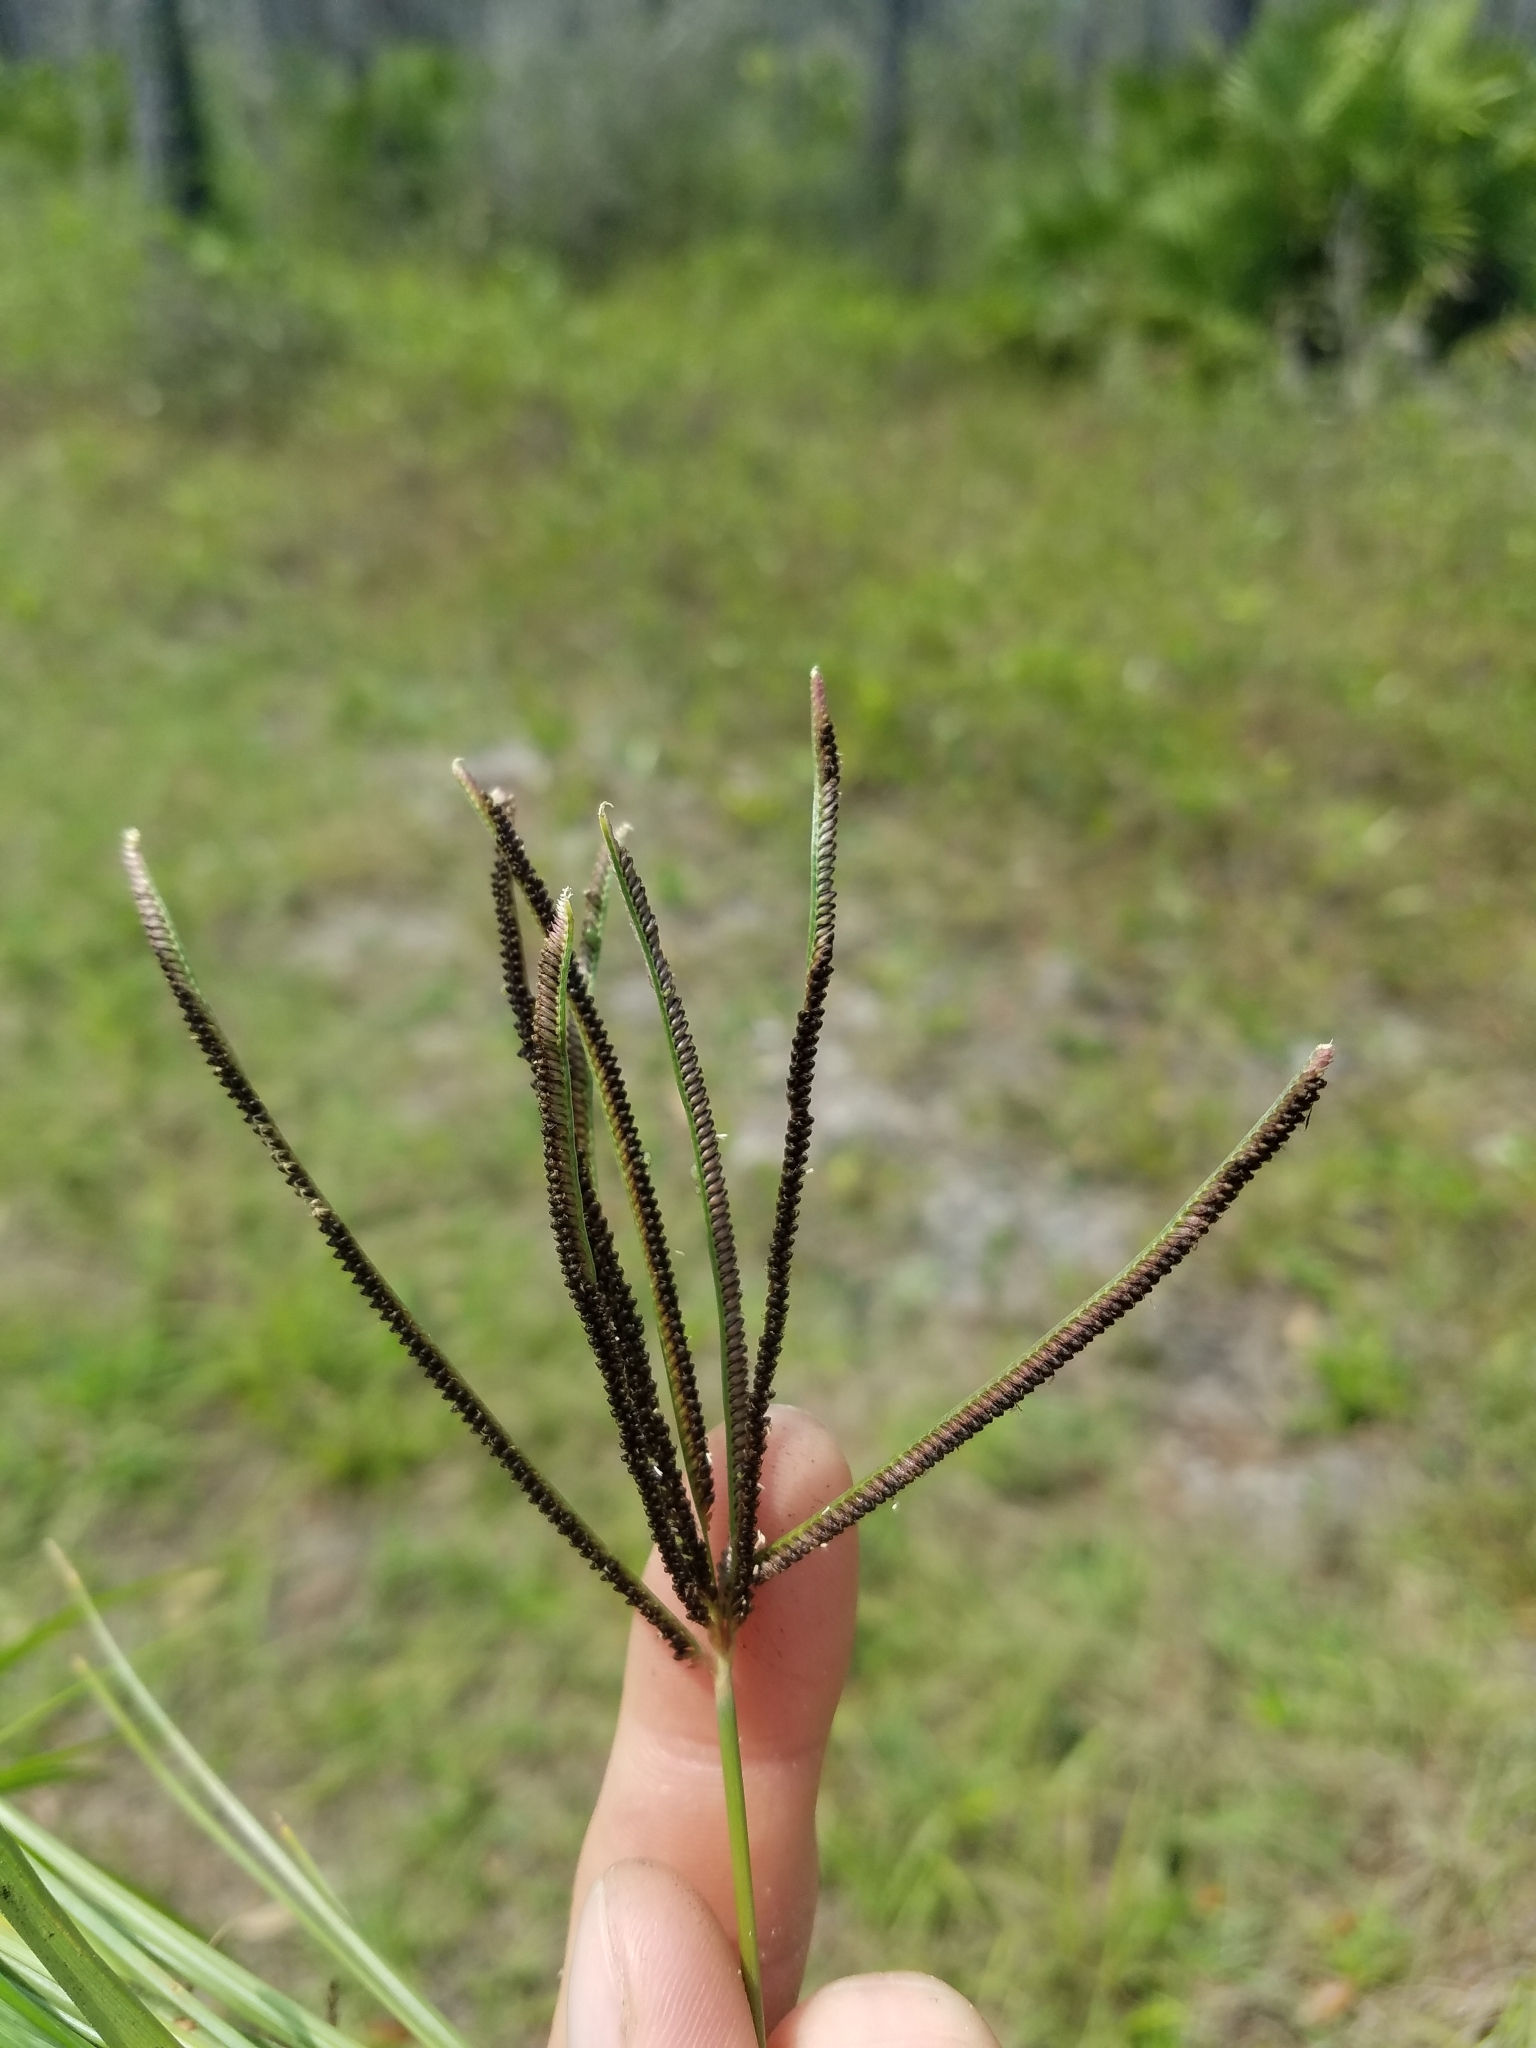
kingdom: Plantae
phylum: Tracheophyta
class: Liliopsida
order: Poales
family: Poaceae
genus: Eustachys
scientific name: Eustachys petraea
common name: Pinewoods fingergrass
